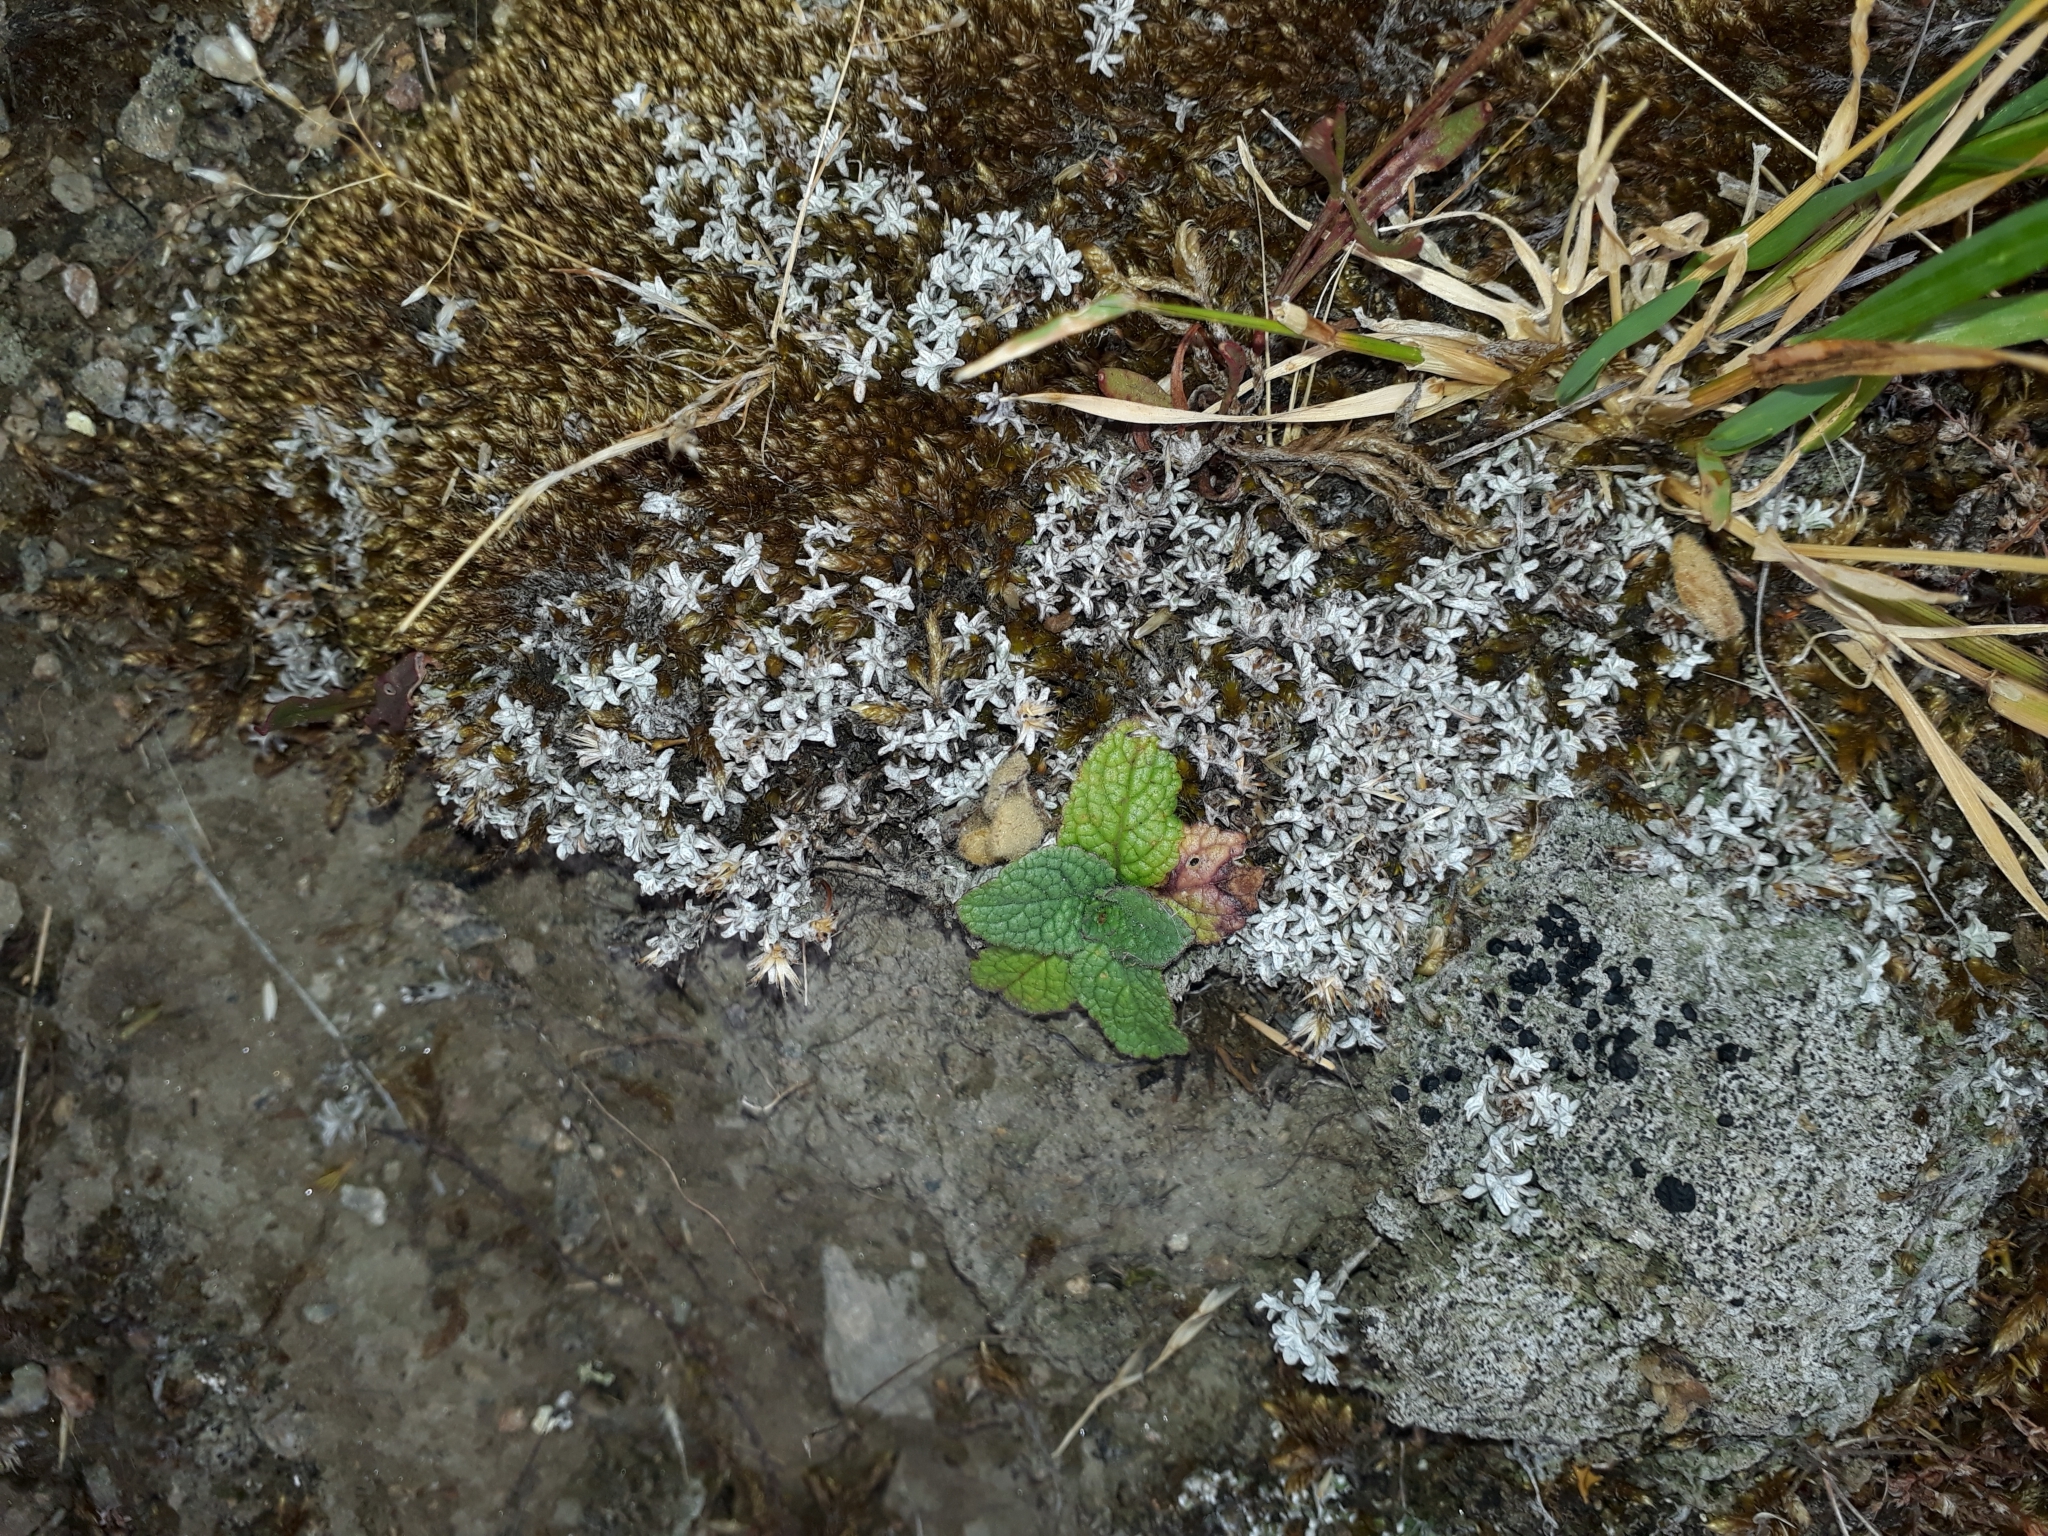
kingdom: Plantae
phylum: Tracheophyta
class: Magnoliopsida
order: Asterales
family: Asteraceae
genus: Raoulia
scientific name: Raoulia beauverdii
